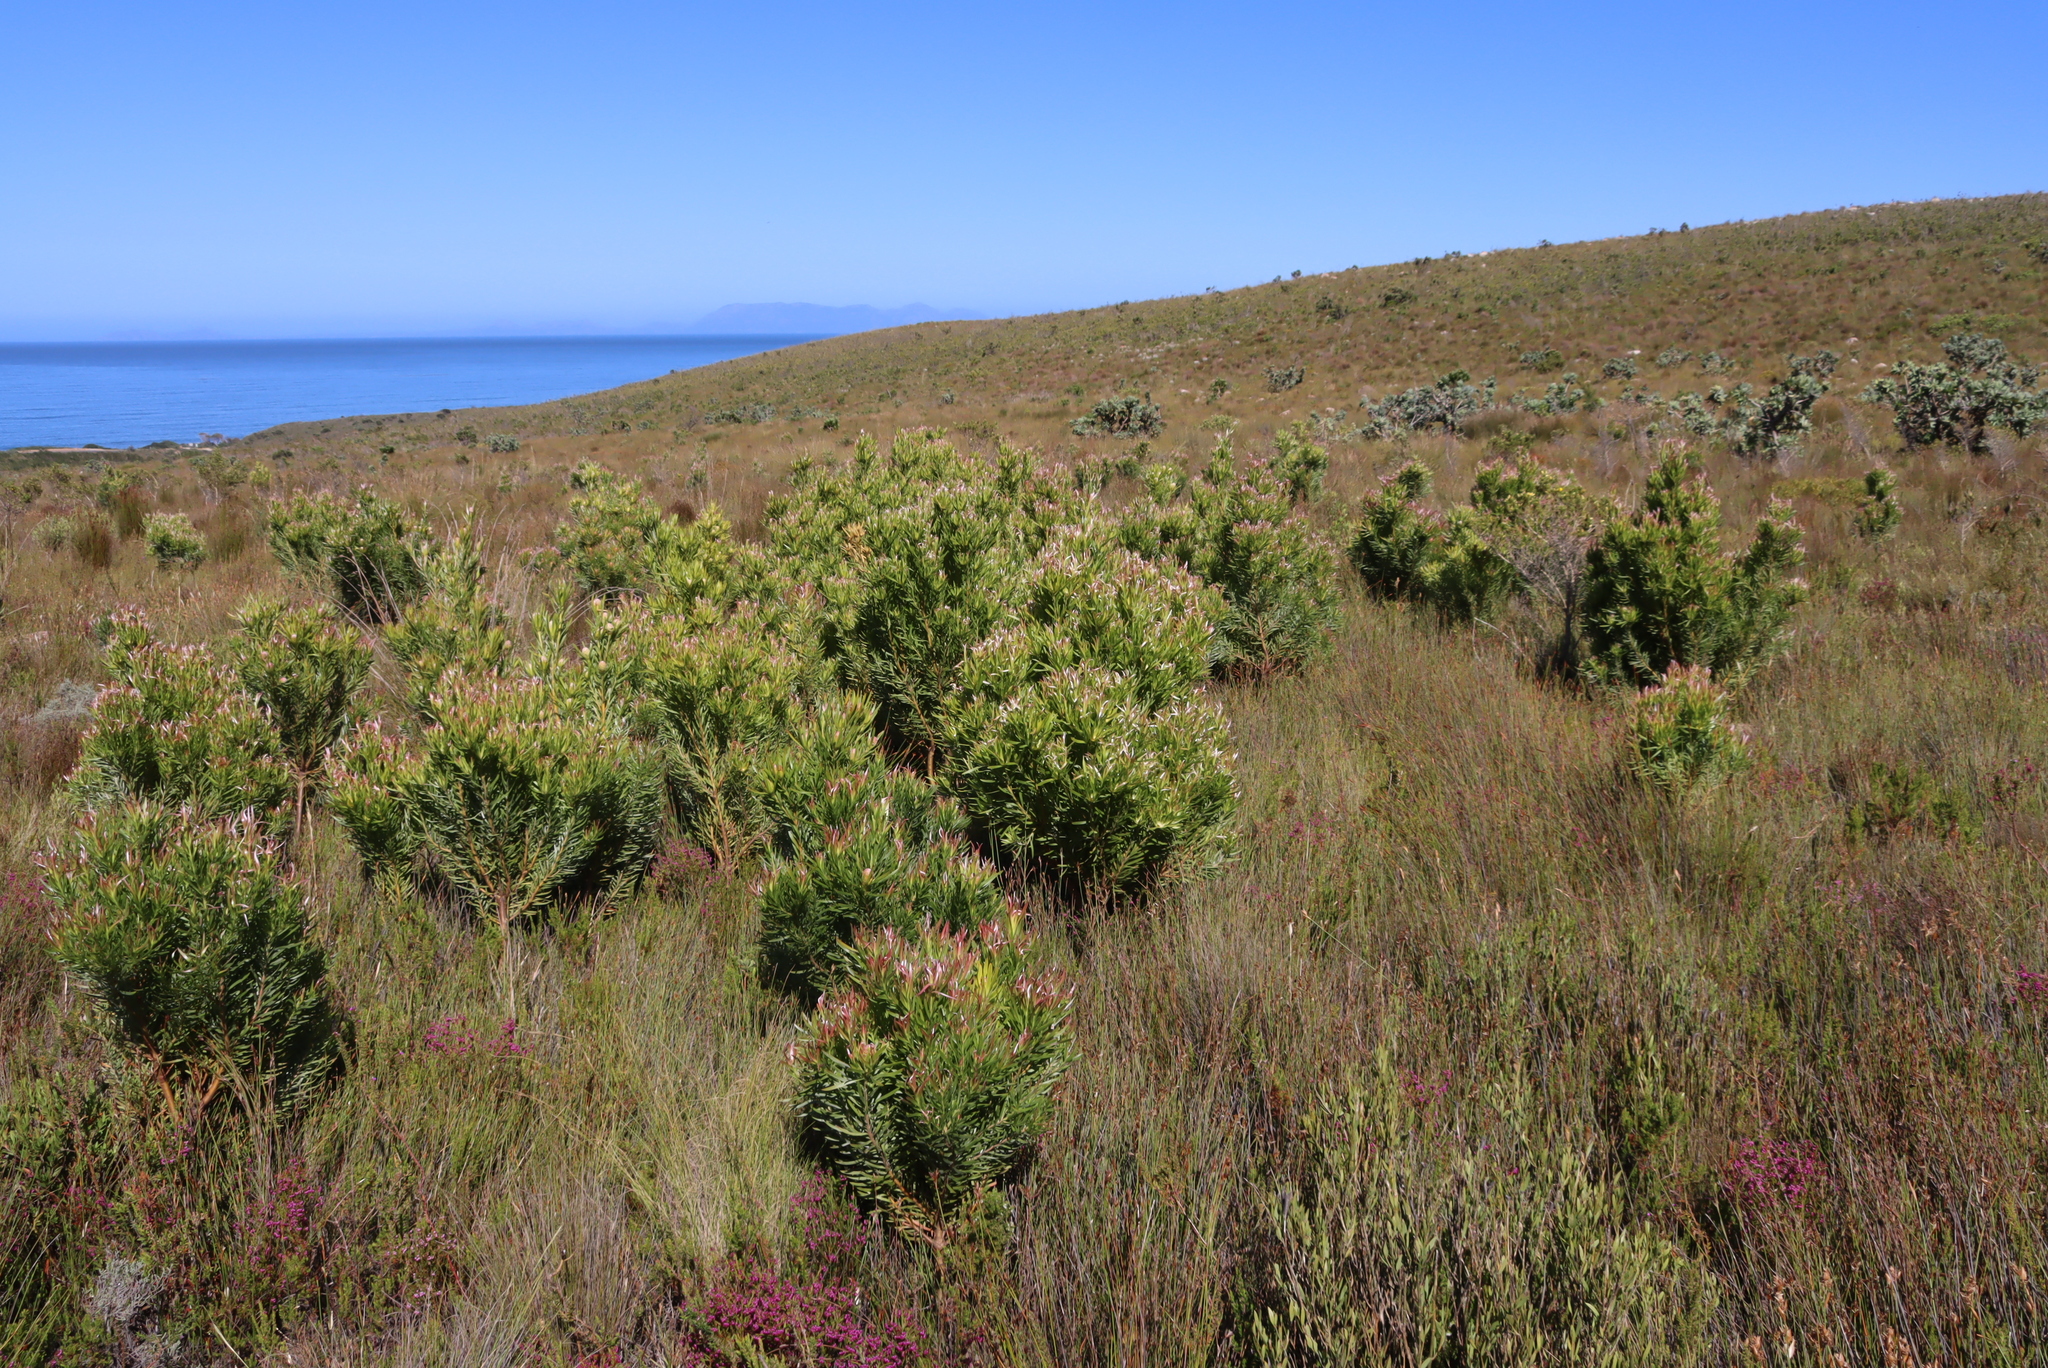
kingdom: Plantae
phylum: Tracheophyta
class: Magnoliopsida
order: Proteales
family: Proteaceae
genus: Leucadendron
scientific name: Leucadendron xanthoconus
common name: Sickle-leaf conebush
